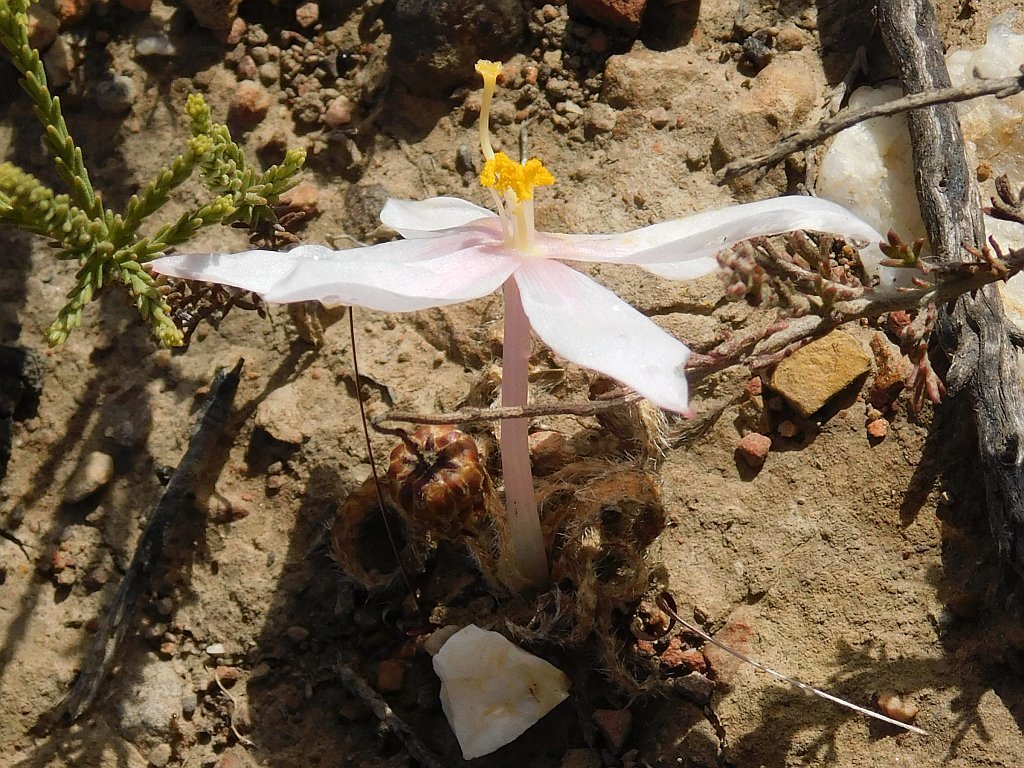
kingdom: Plantae
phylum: Tracheophyta
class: Liliopsida
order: Asparagales
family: Amaryllidaceae
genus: Gethyllis
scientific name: Gethyllis villosa
